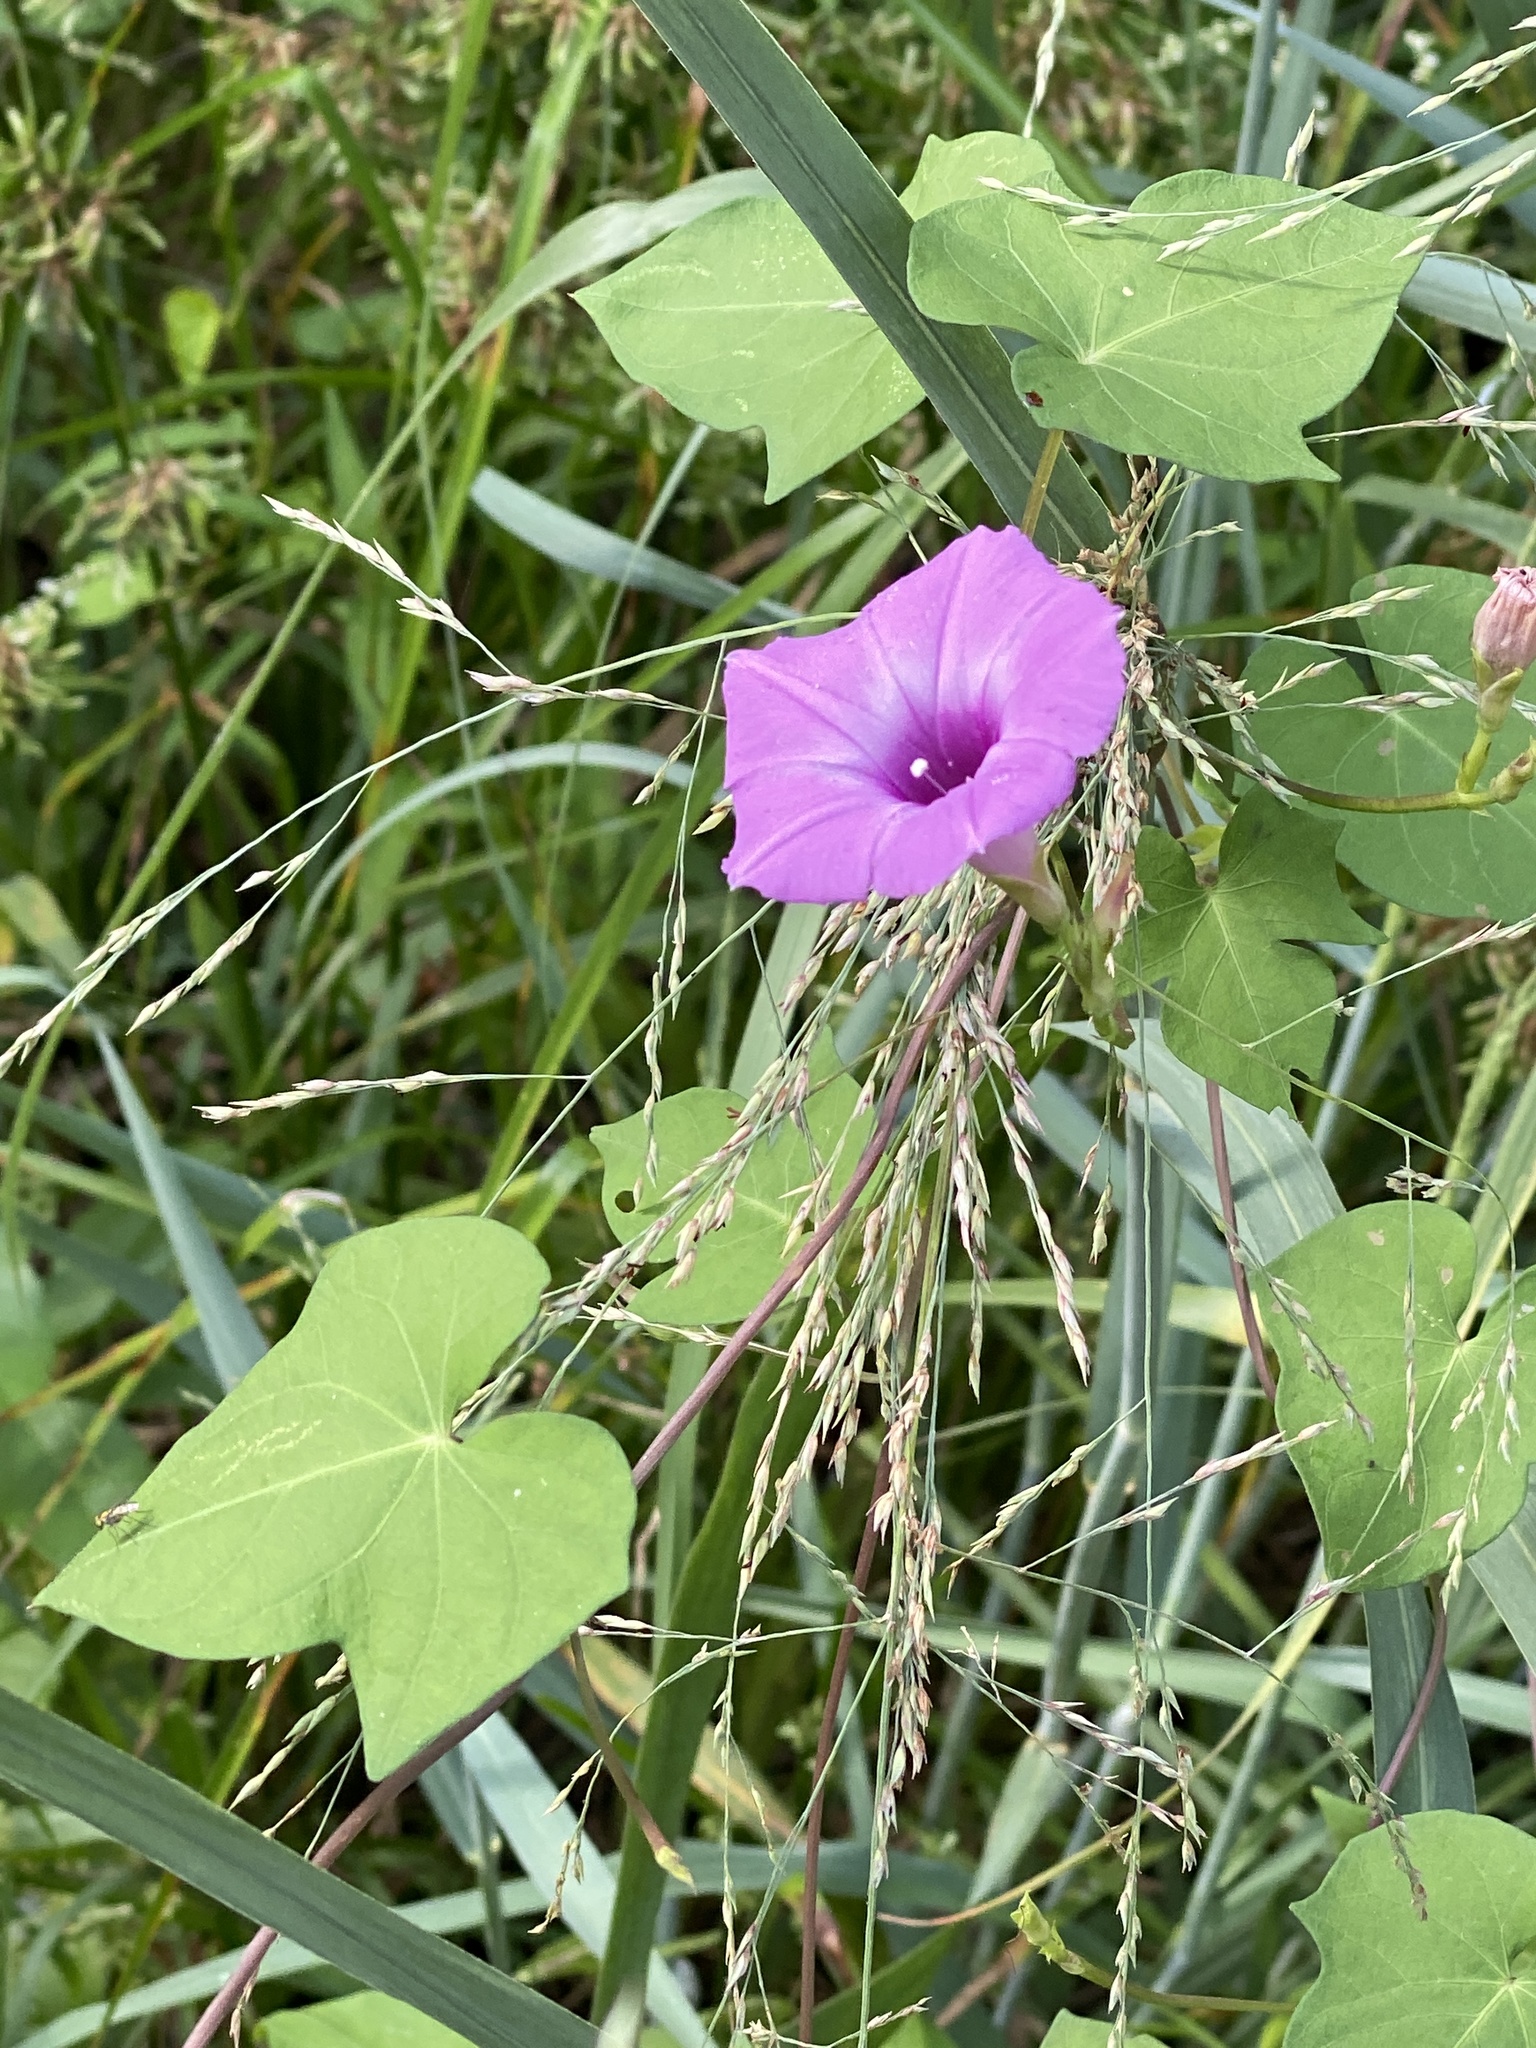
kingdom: Plantae
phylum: Tracheophyta
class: Magnoliopsida
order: Solanales
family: Convolvulaceae
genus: Ipomoea
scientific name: Ipomoea cordatotriloba
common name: Cotton morning glory
